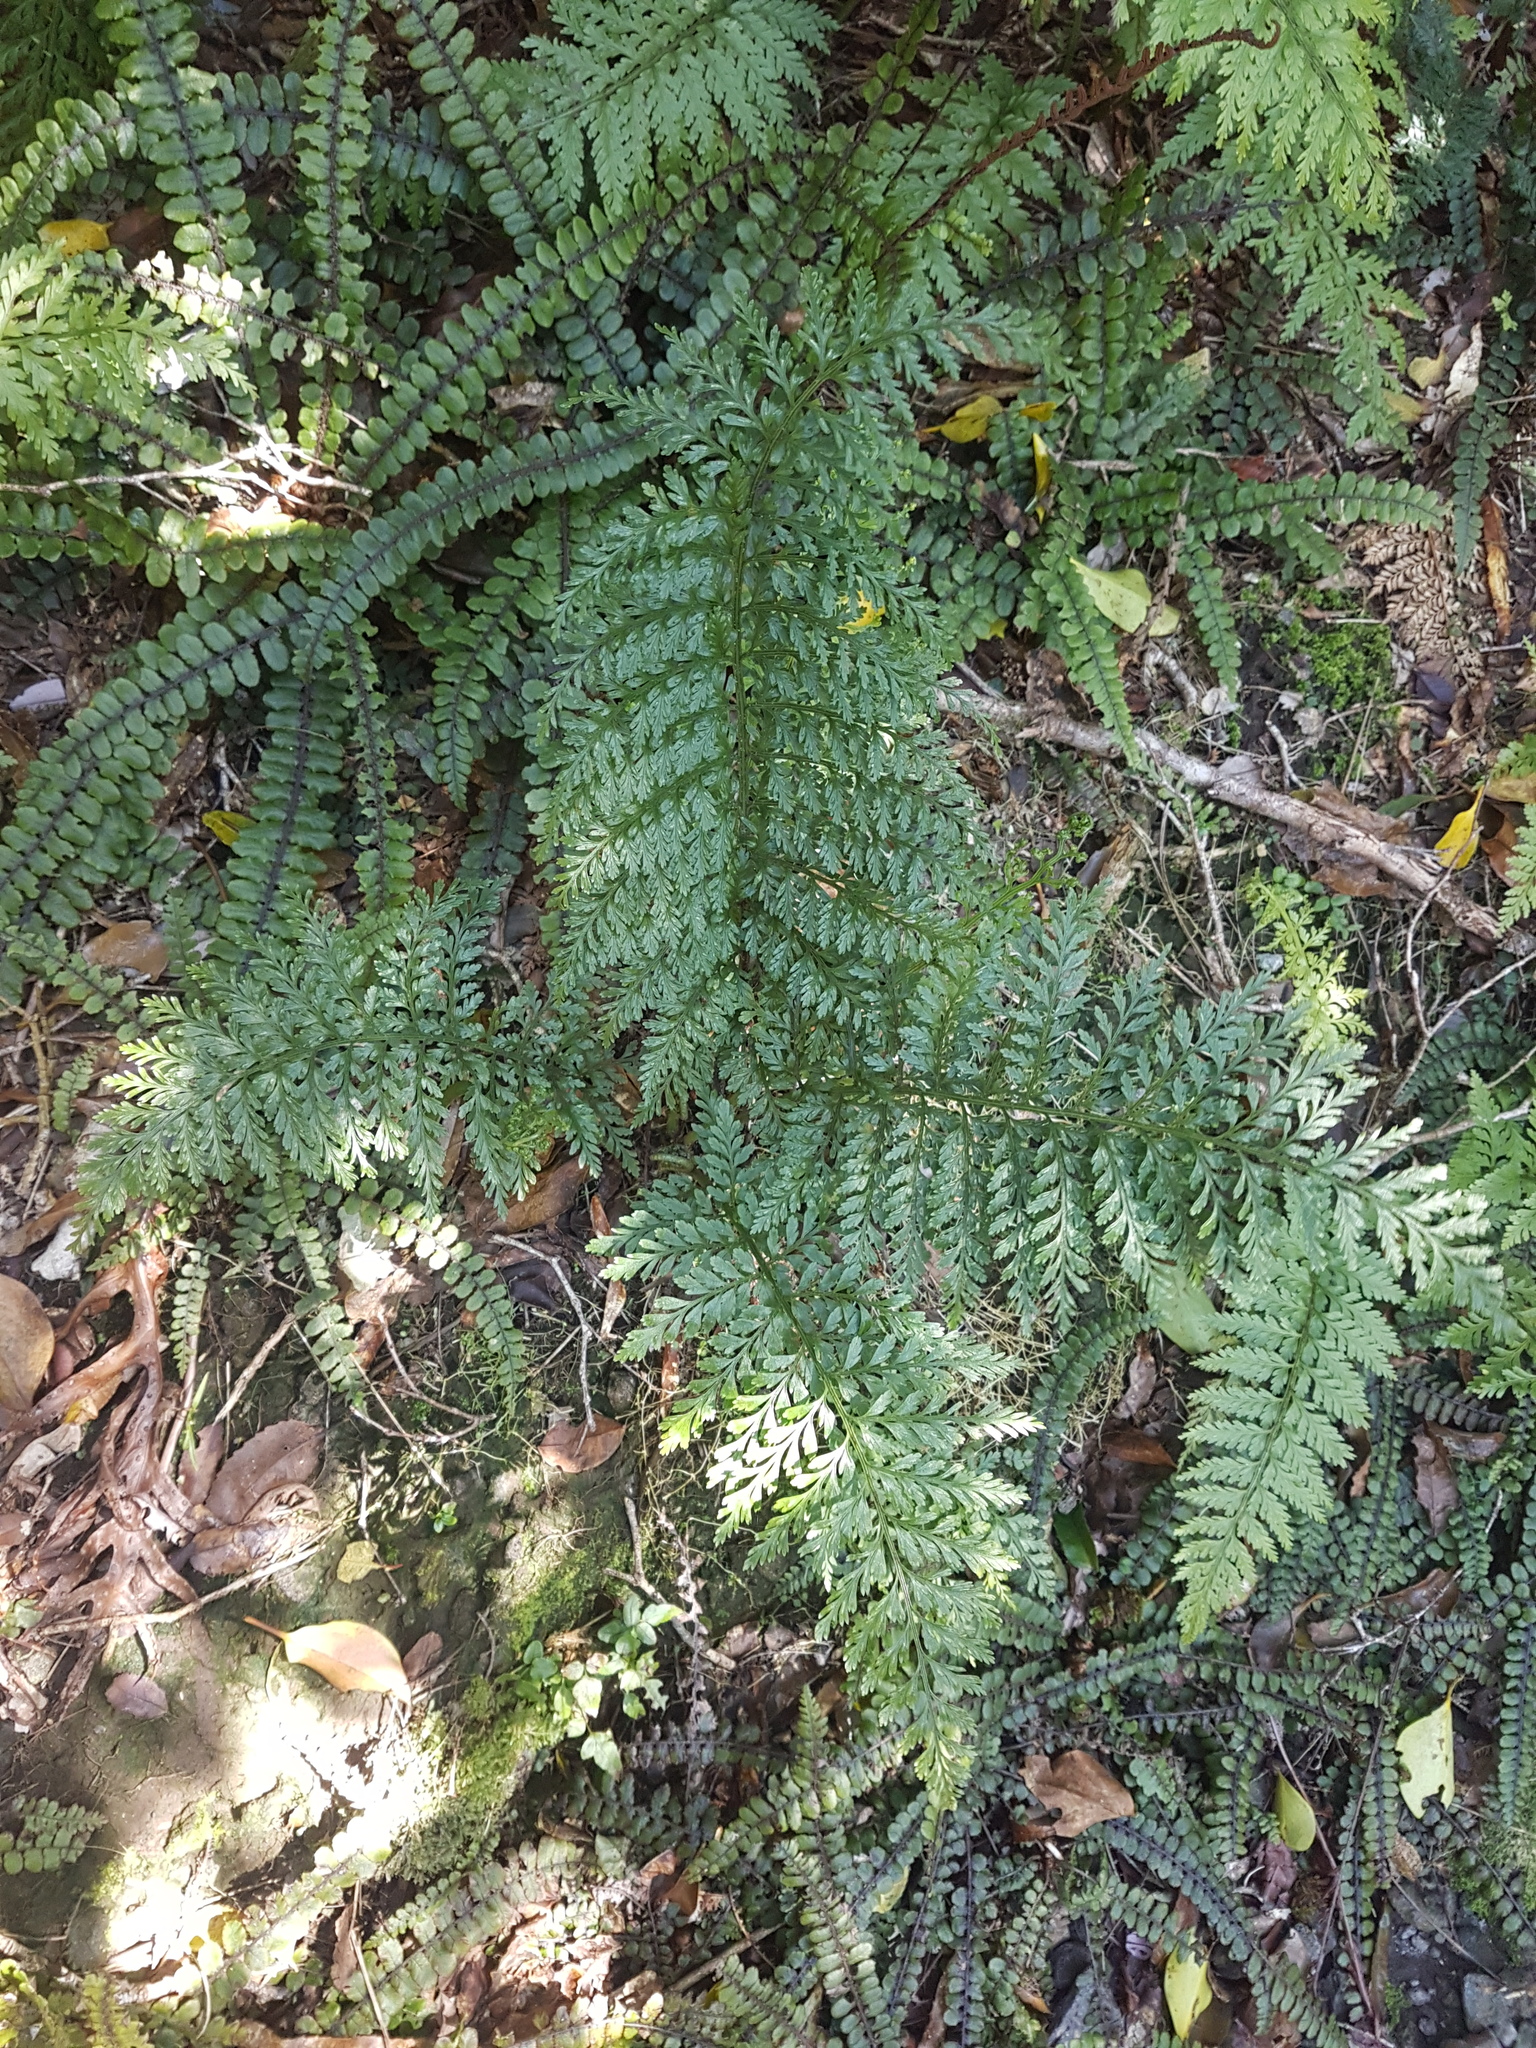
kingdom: Plantae
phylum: Tracheophyta
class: Polypodiopsida
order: Polypodiales
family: Aspleniaceae
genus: Asplenium
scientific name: Asplenium
